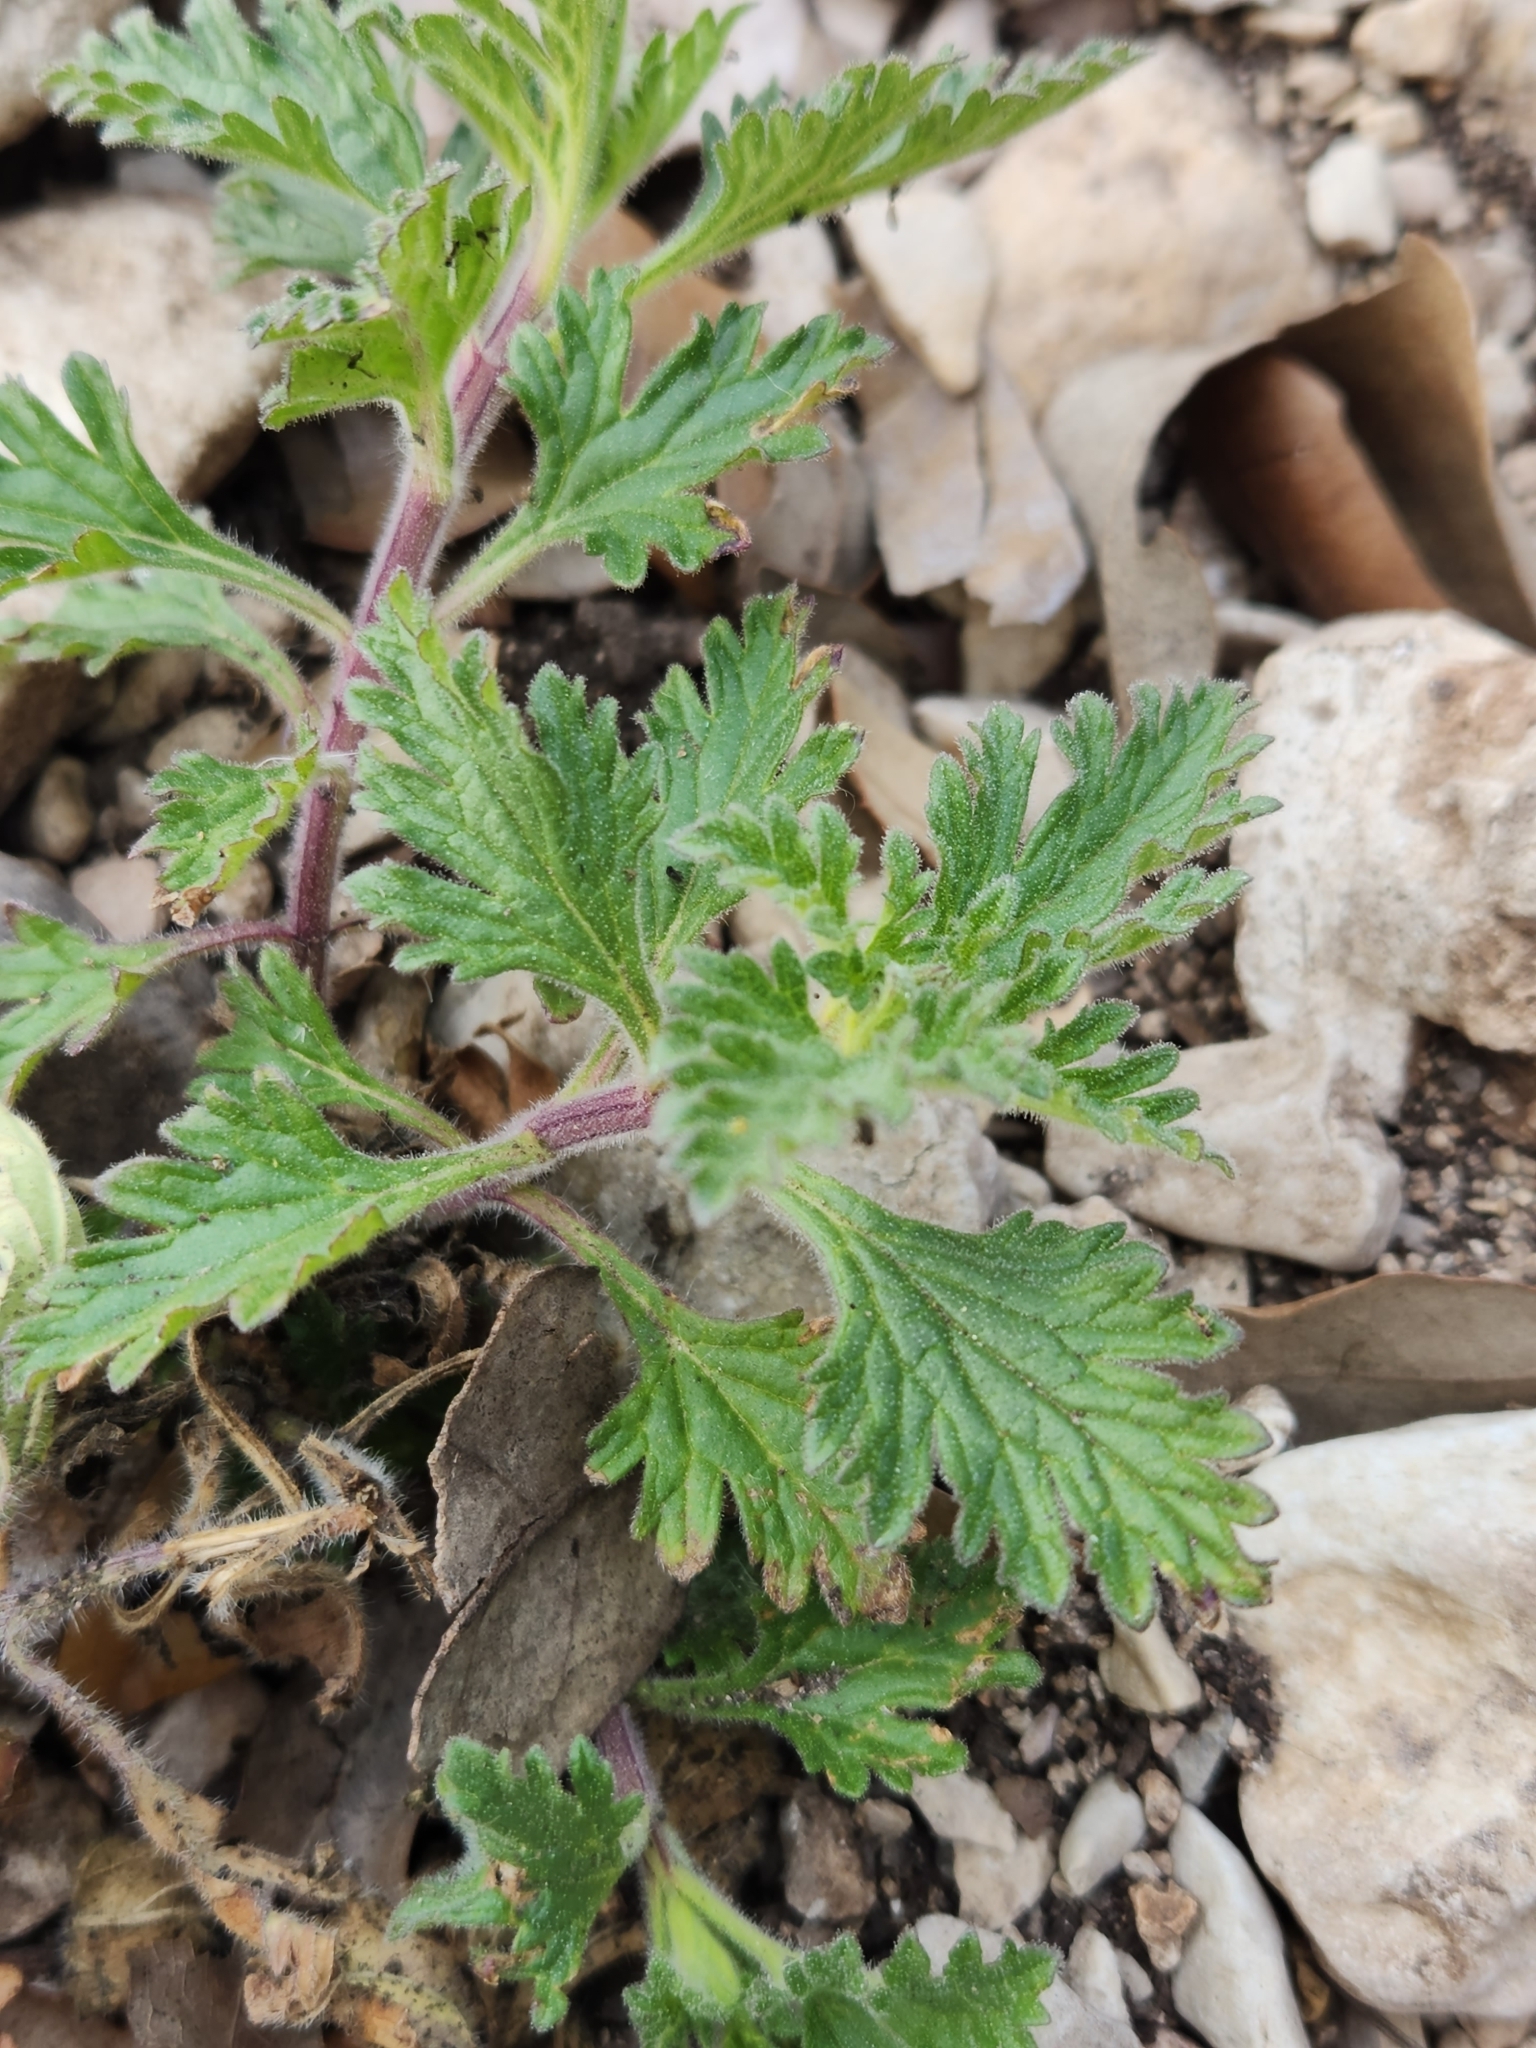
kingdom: Plantae
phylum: Tracheophyta
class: Magnoliopsida
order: Lamiales
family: Verbenaceae
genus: Verbena
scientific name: Verbena tumidula
